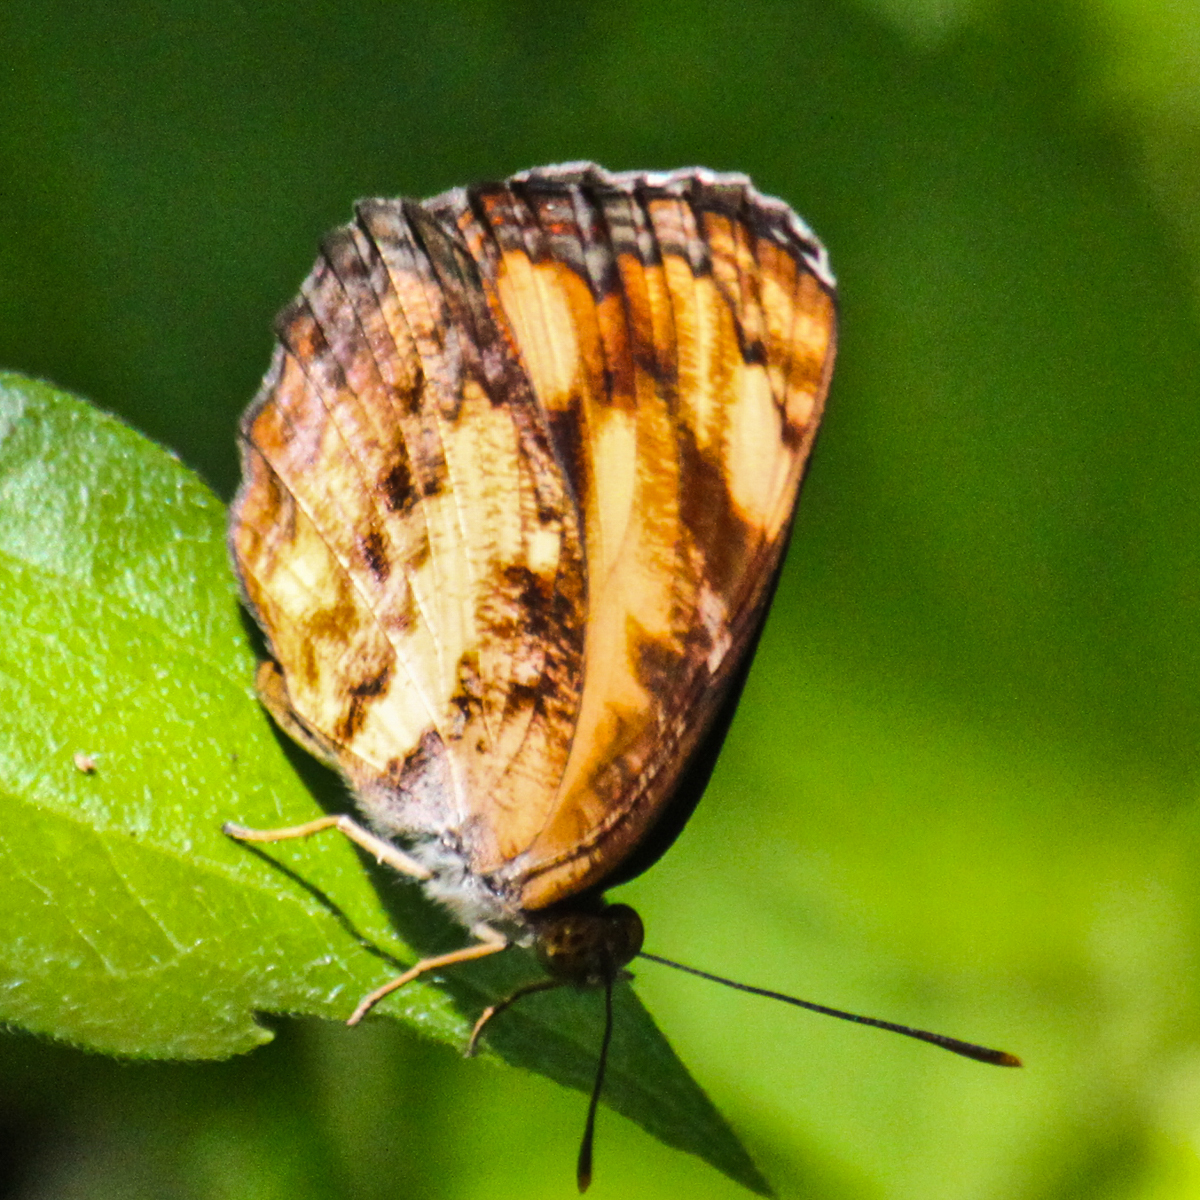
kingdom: Animalia
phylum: Arthropoda
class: Insecta
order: Lepidoptera
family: Nymphalidae
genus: Pantoporia
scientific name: Pantoporia hordonia
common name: Common lascar
